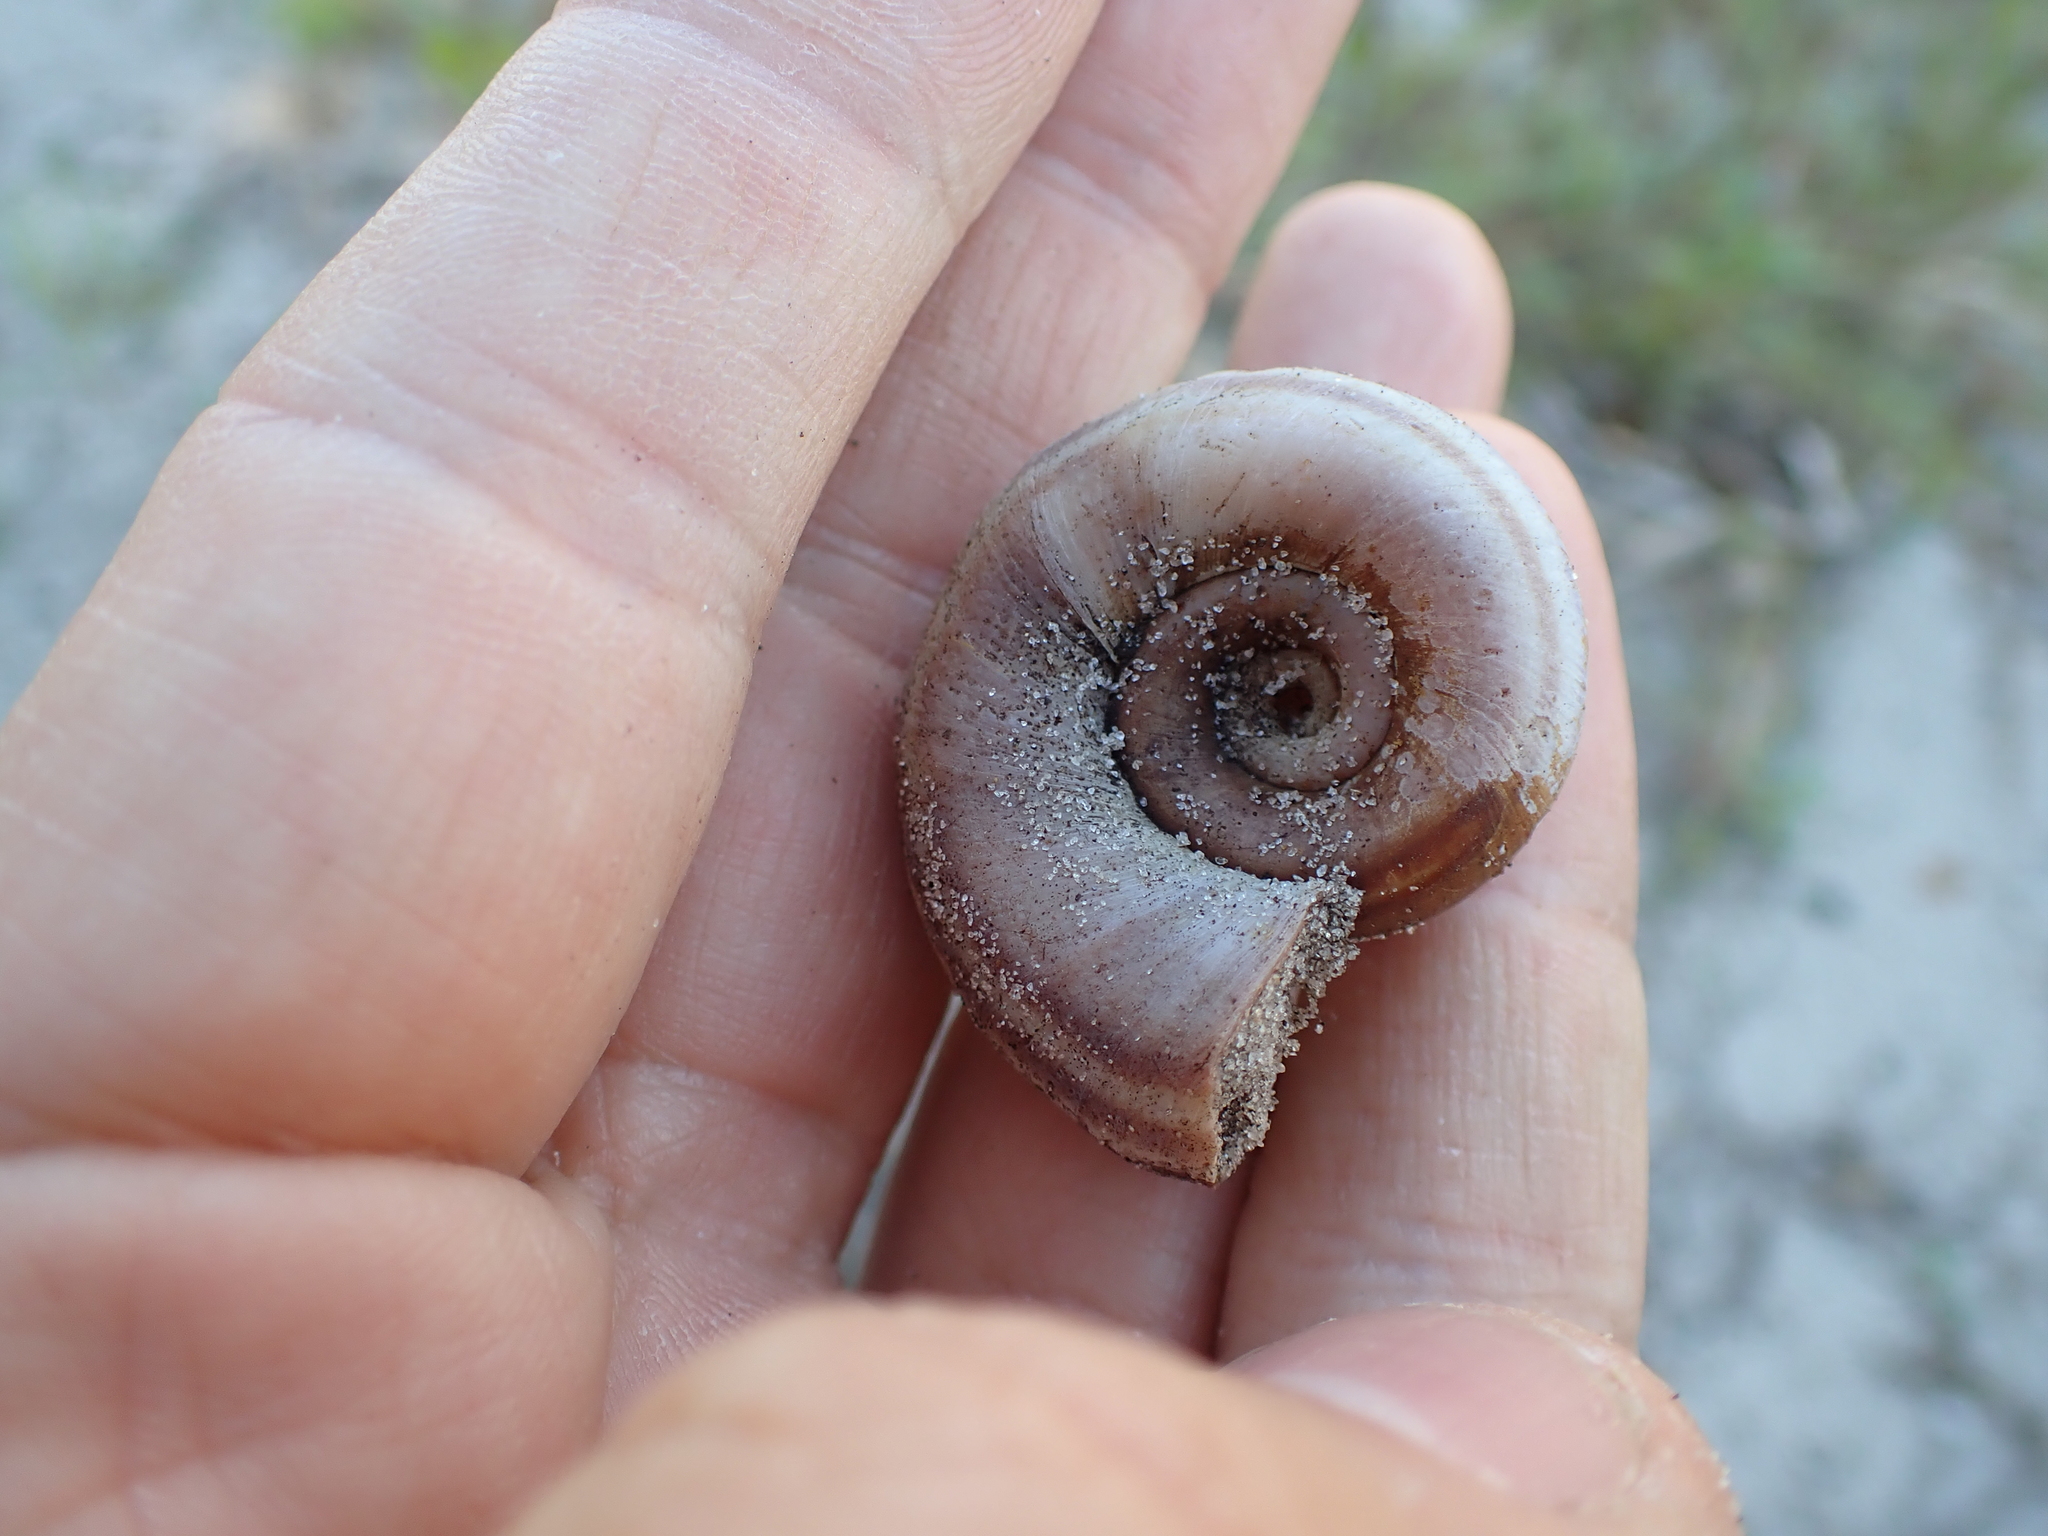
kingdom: Animalia
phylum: Mollusca
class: Gastropoda
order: Architaenioglossa
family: Ampullariidae
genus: Marisa
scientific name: Marisa cornuarietis
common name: Giant ramshorn snail
